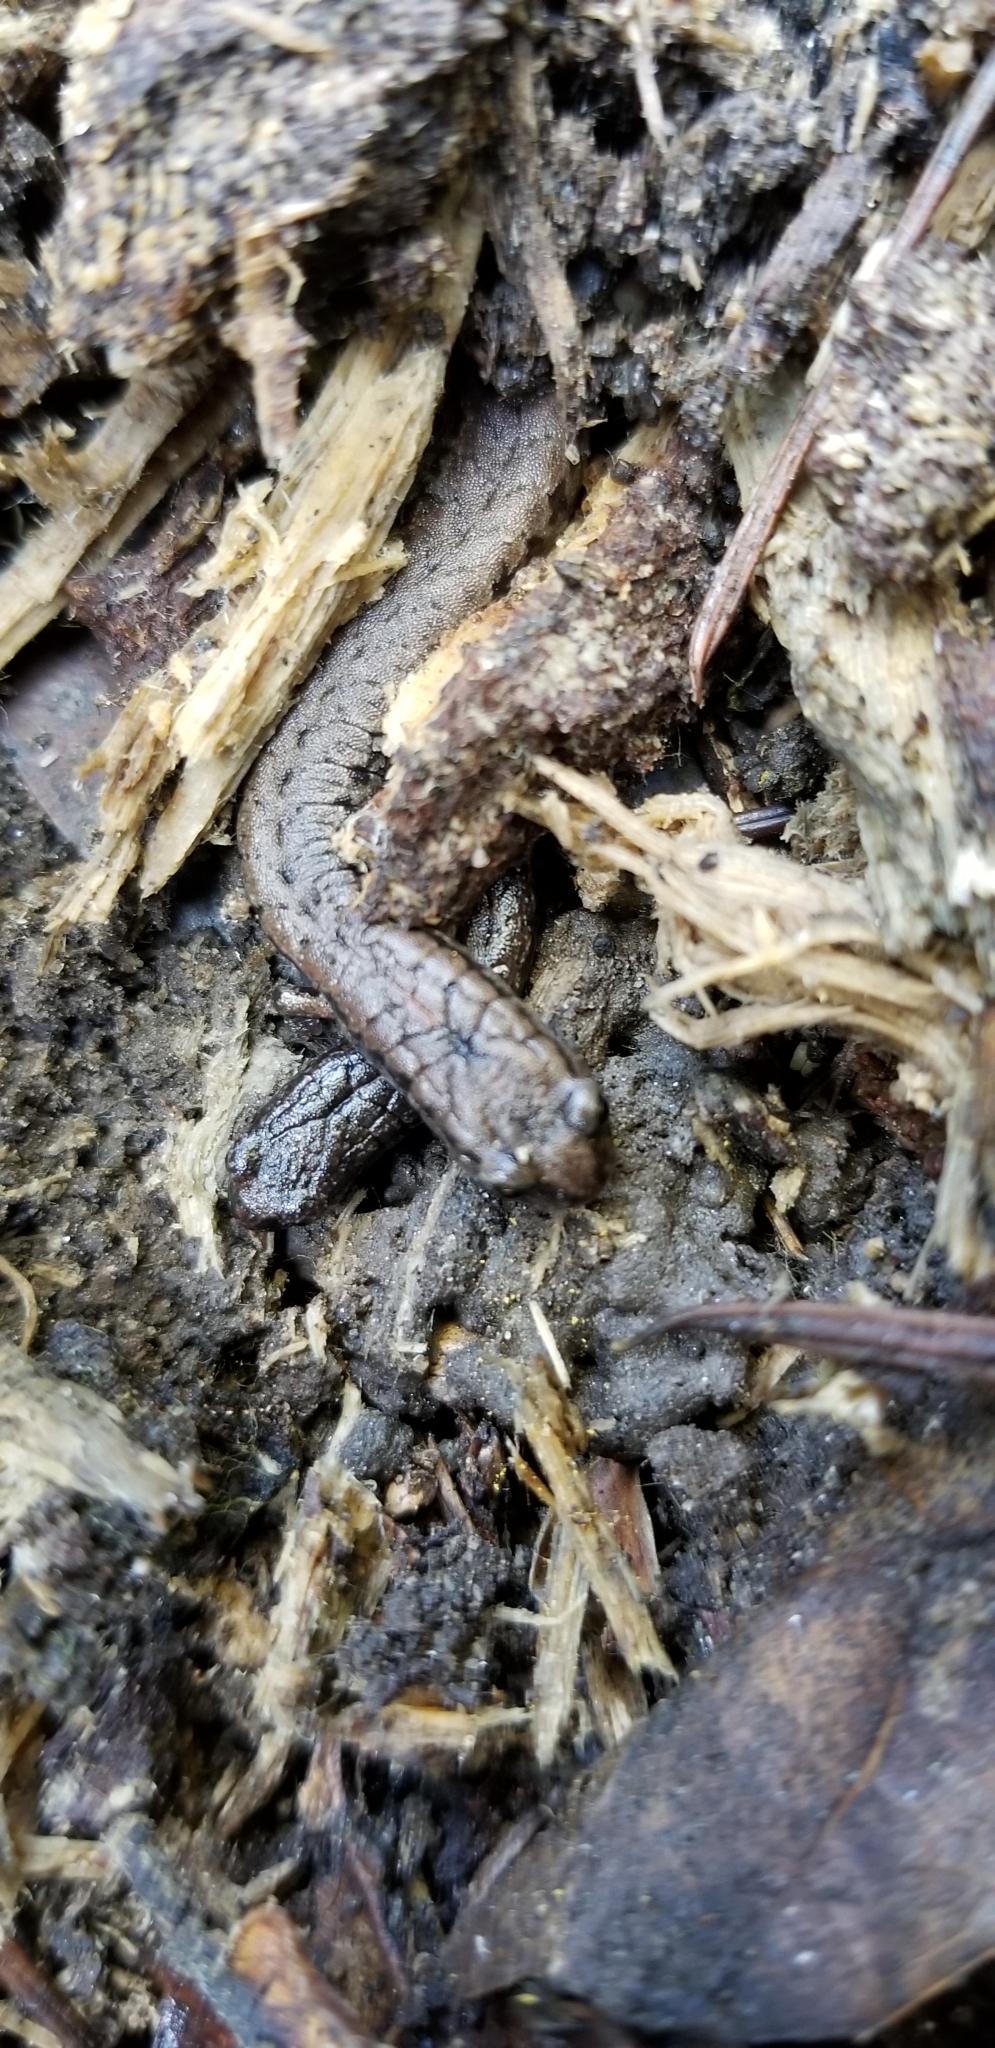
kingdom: Animalia
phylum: Chordata
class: Amphibia
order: Caudata
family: Plethodontidae
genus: Batrachoseps
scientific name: Batrachoseps attenuatus
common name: California slender salamander
